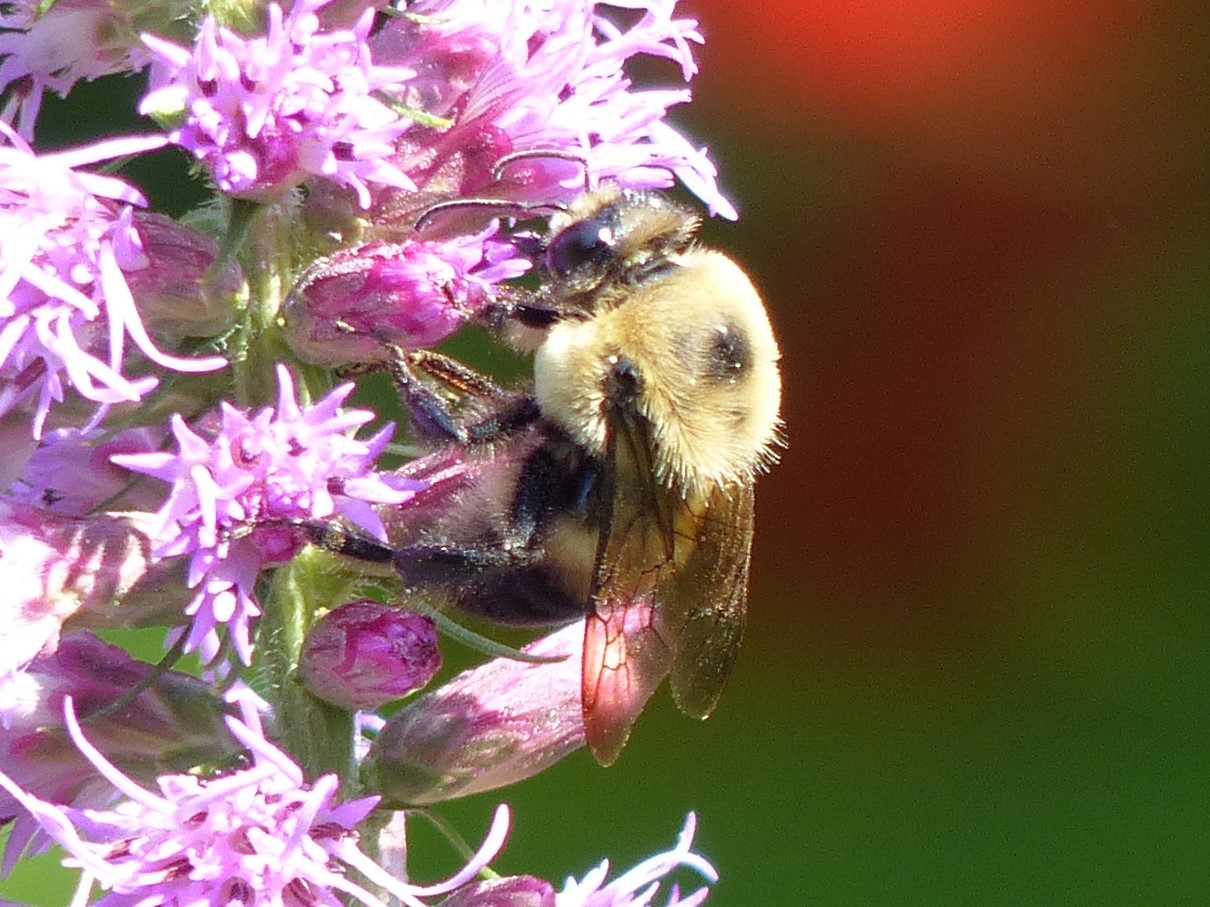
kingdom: Animalia
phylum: Arthropoda
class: Insecta
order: Hymenoptera
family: Apidae
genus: Bombus
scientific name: Bombus griseocollis
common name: Brown-belted bumble bee
